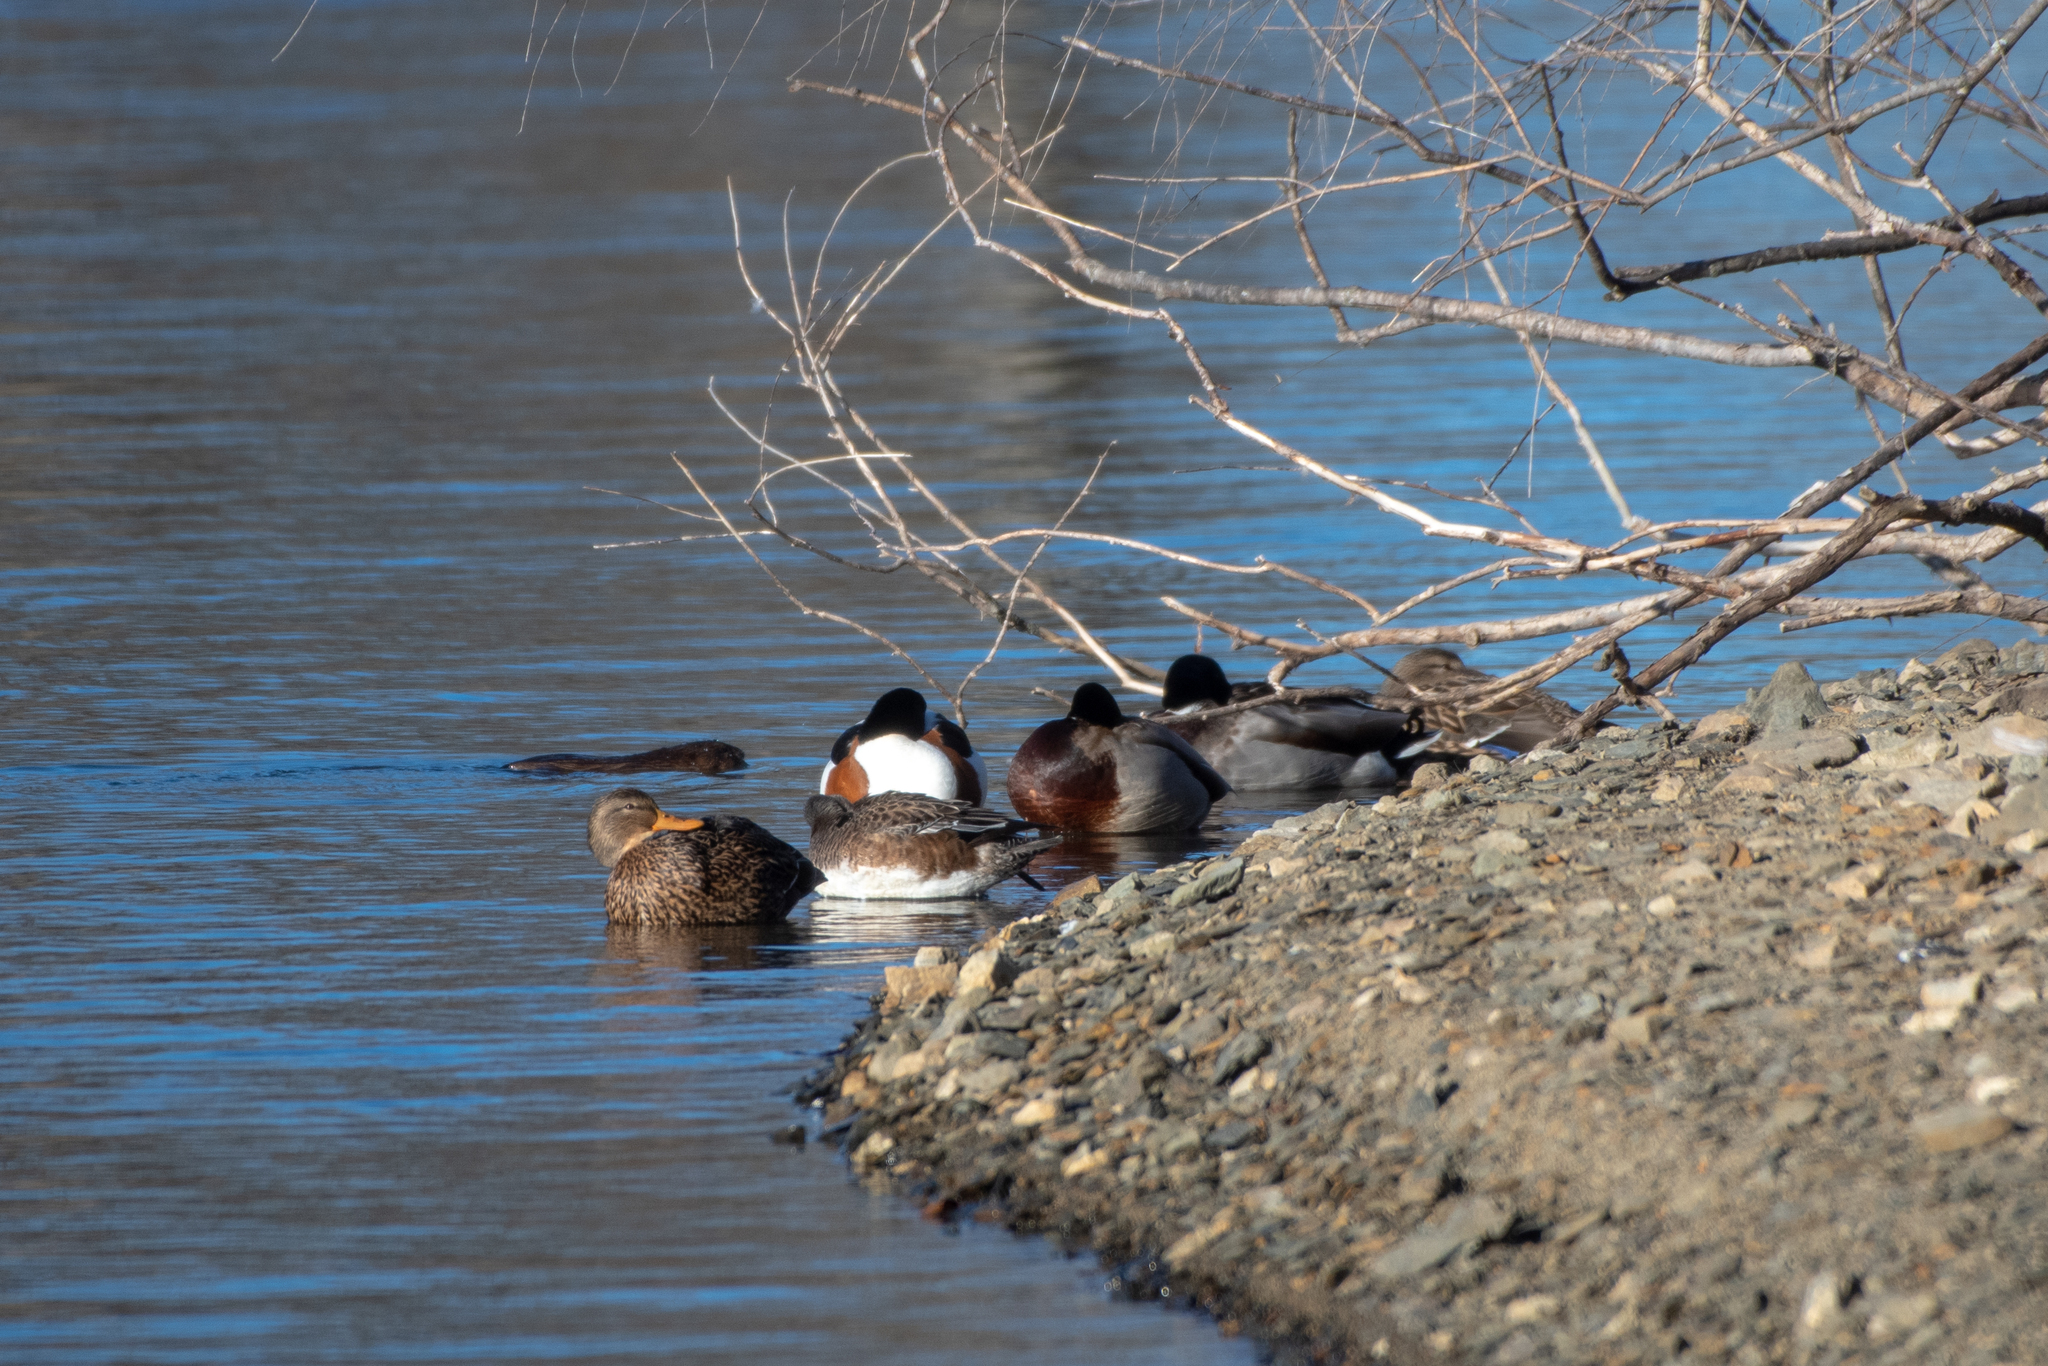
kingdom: Animalia
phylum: Chordata
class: Mammalia
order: Rodentia
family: Cricetidae
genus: Ondatra
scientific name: Ondatra zibethicus
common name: Muskrat
